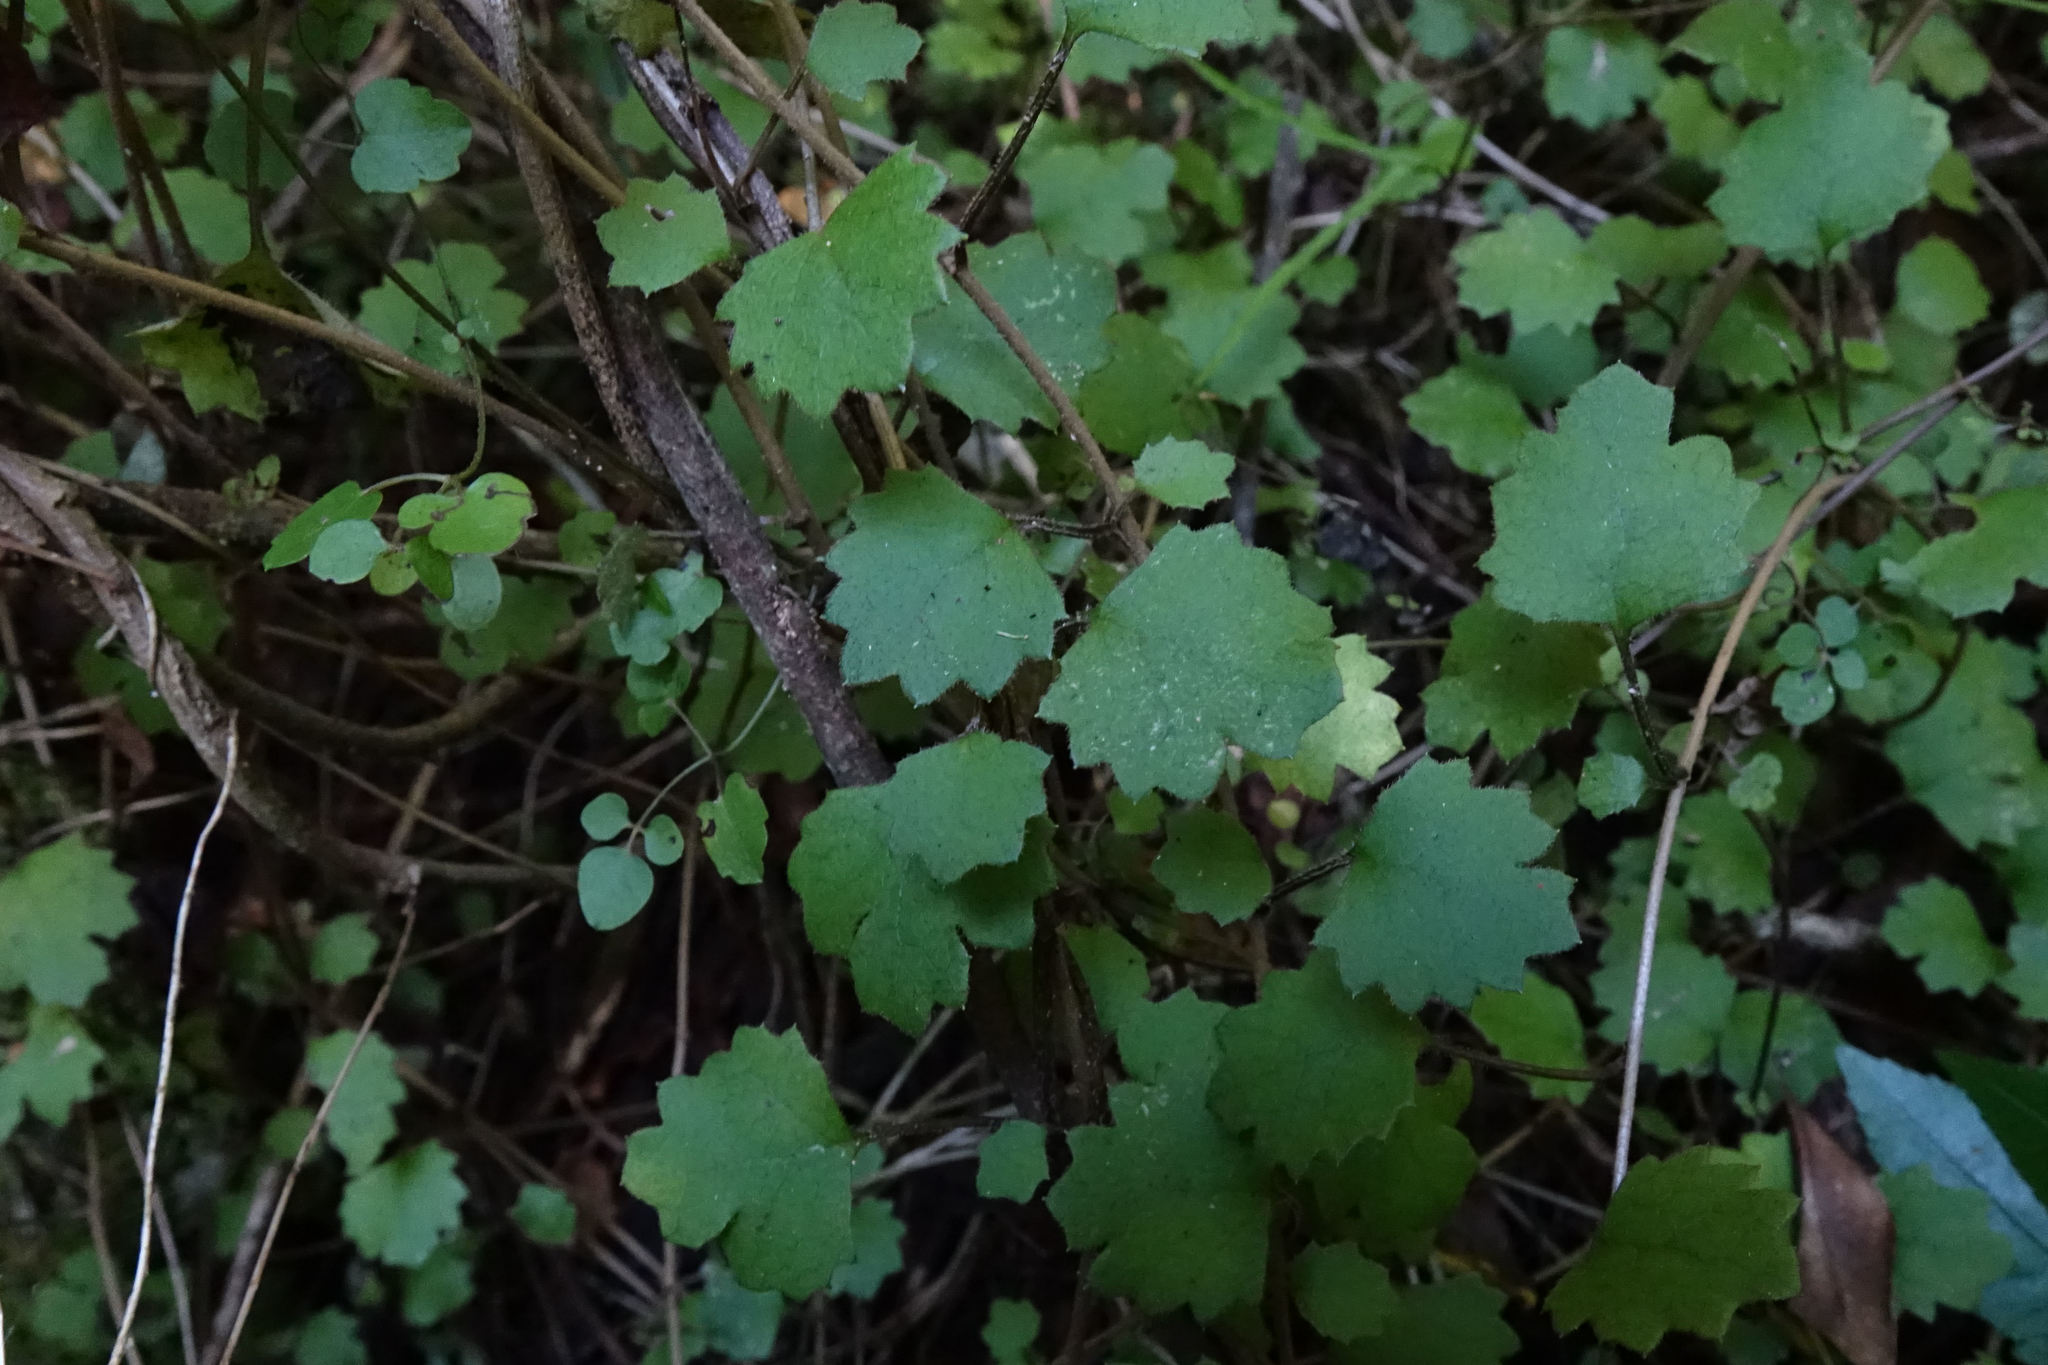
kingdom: Plantae
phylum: Tracheophyta
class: Magnoliopsida
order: Asterales
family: Asteraceae
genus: Brachyglottis
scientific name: Brachyglottis sciadophila
